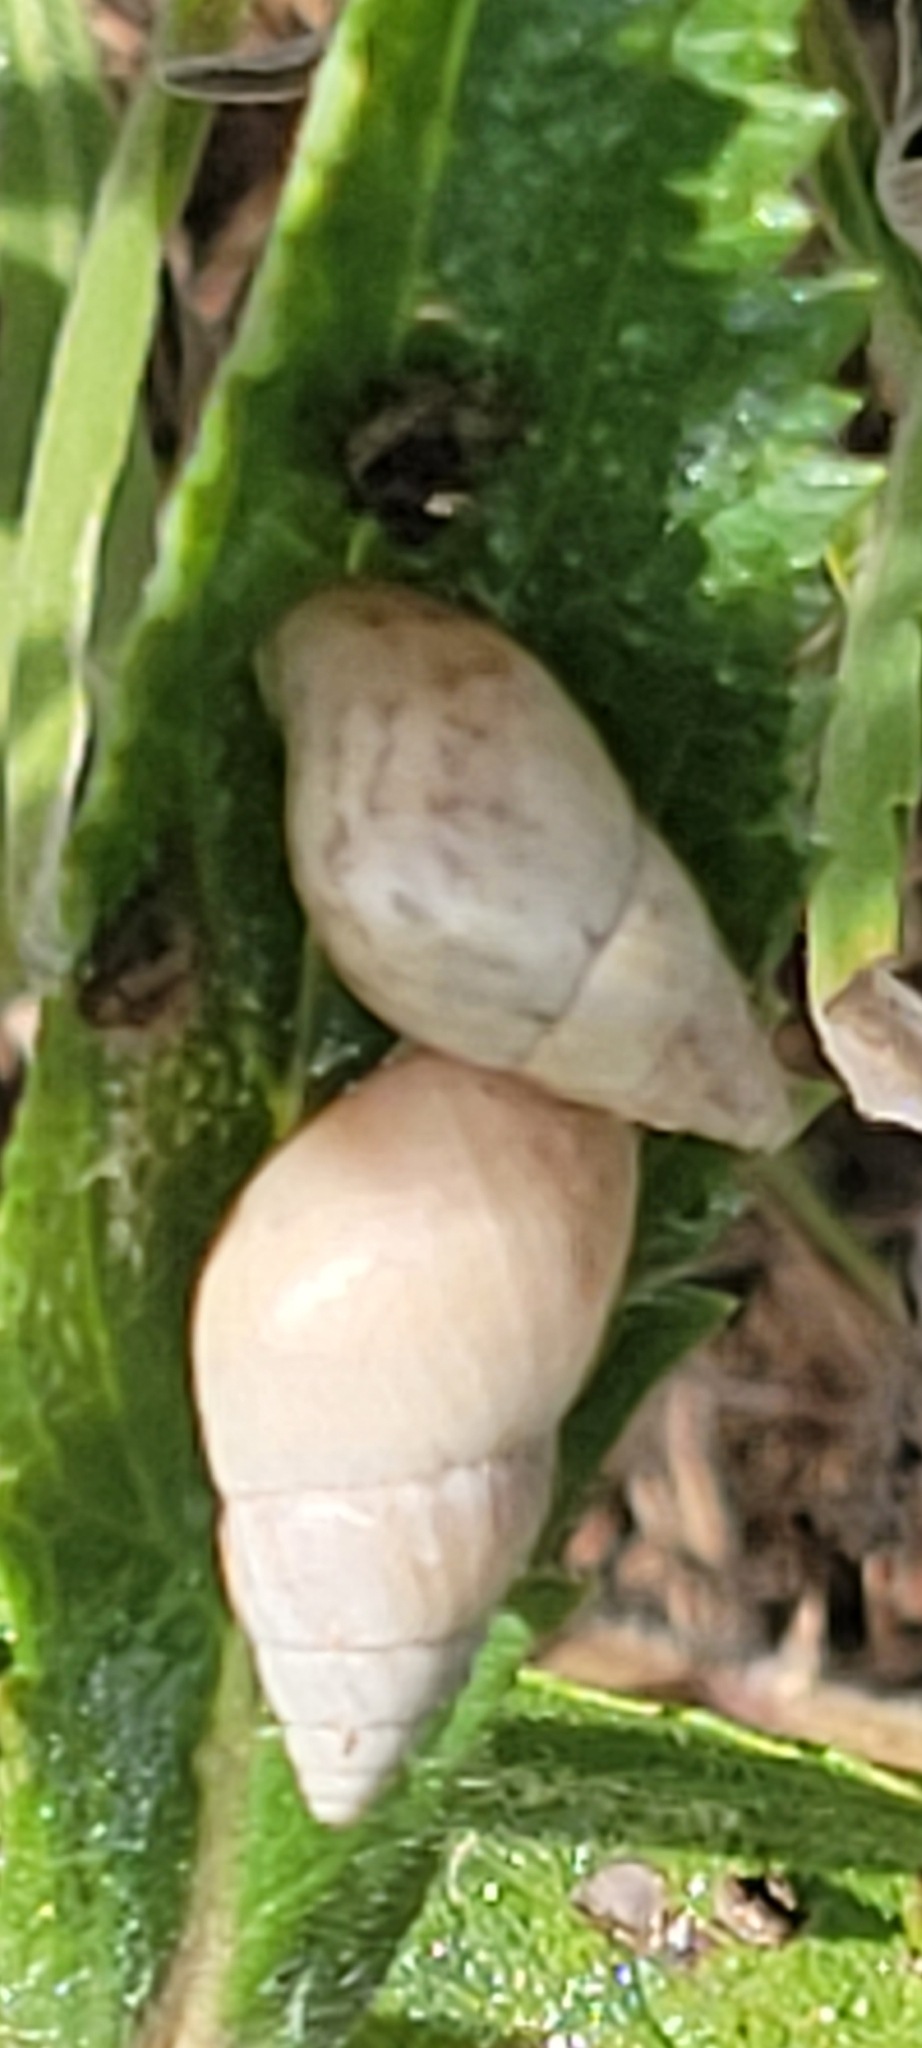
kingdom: Animalia
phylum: Mollusca
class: Gastropoda
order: Stylommatophora
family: Bulimulidae
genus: Bulimulus
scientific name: Bulimulus bonariensis
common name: Snail
